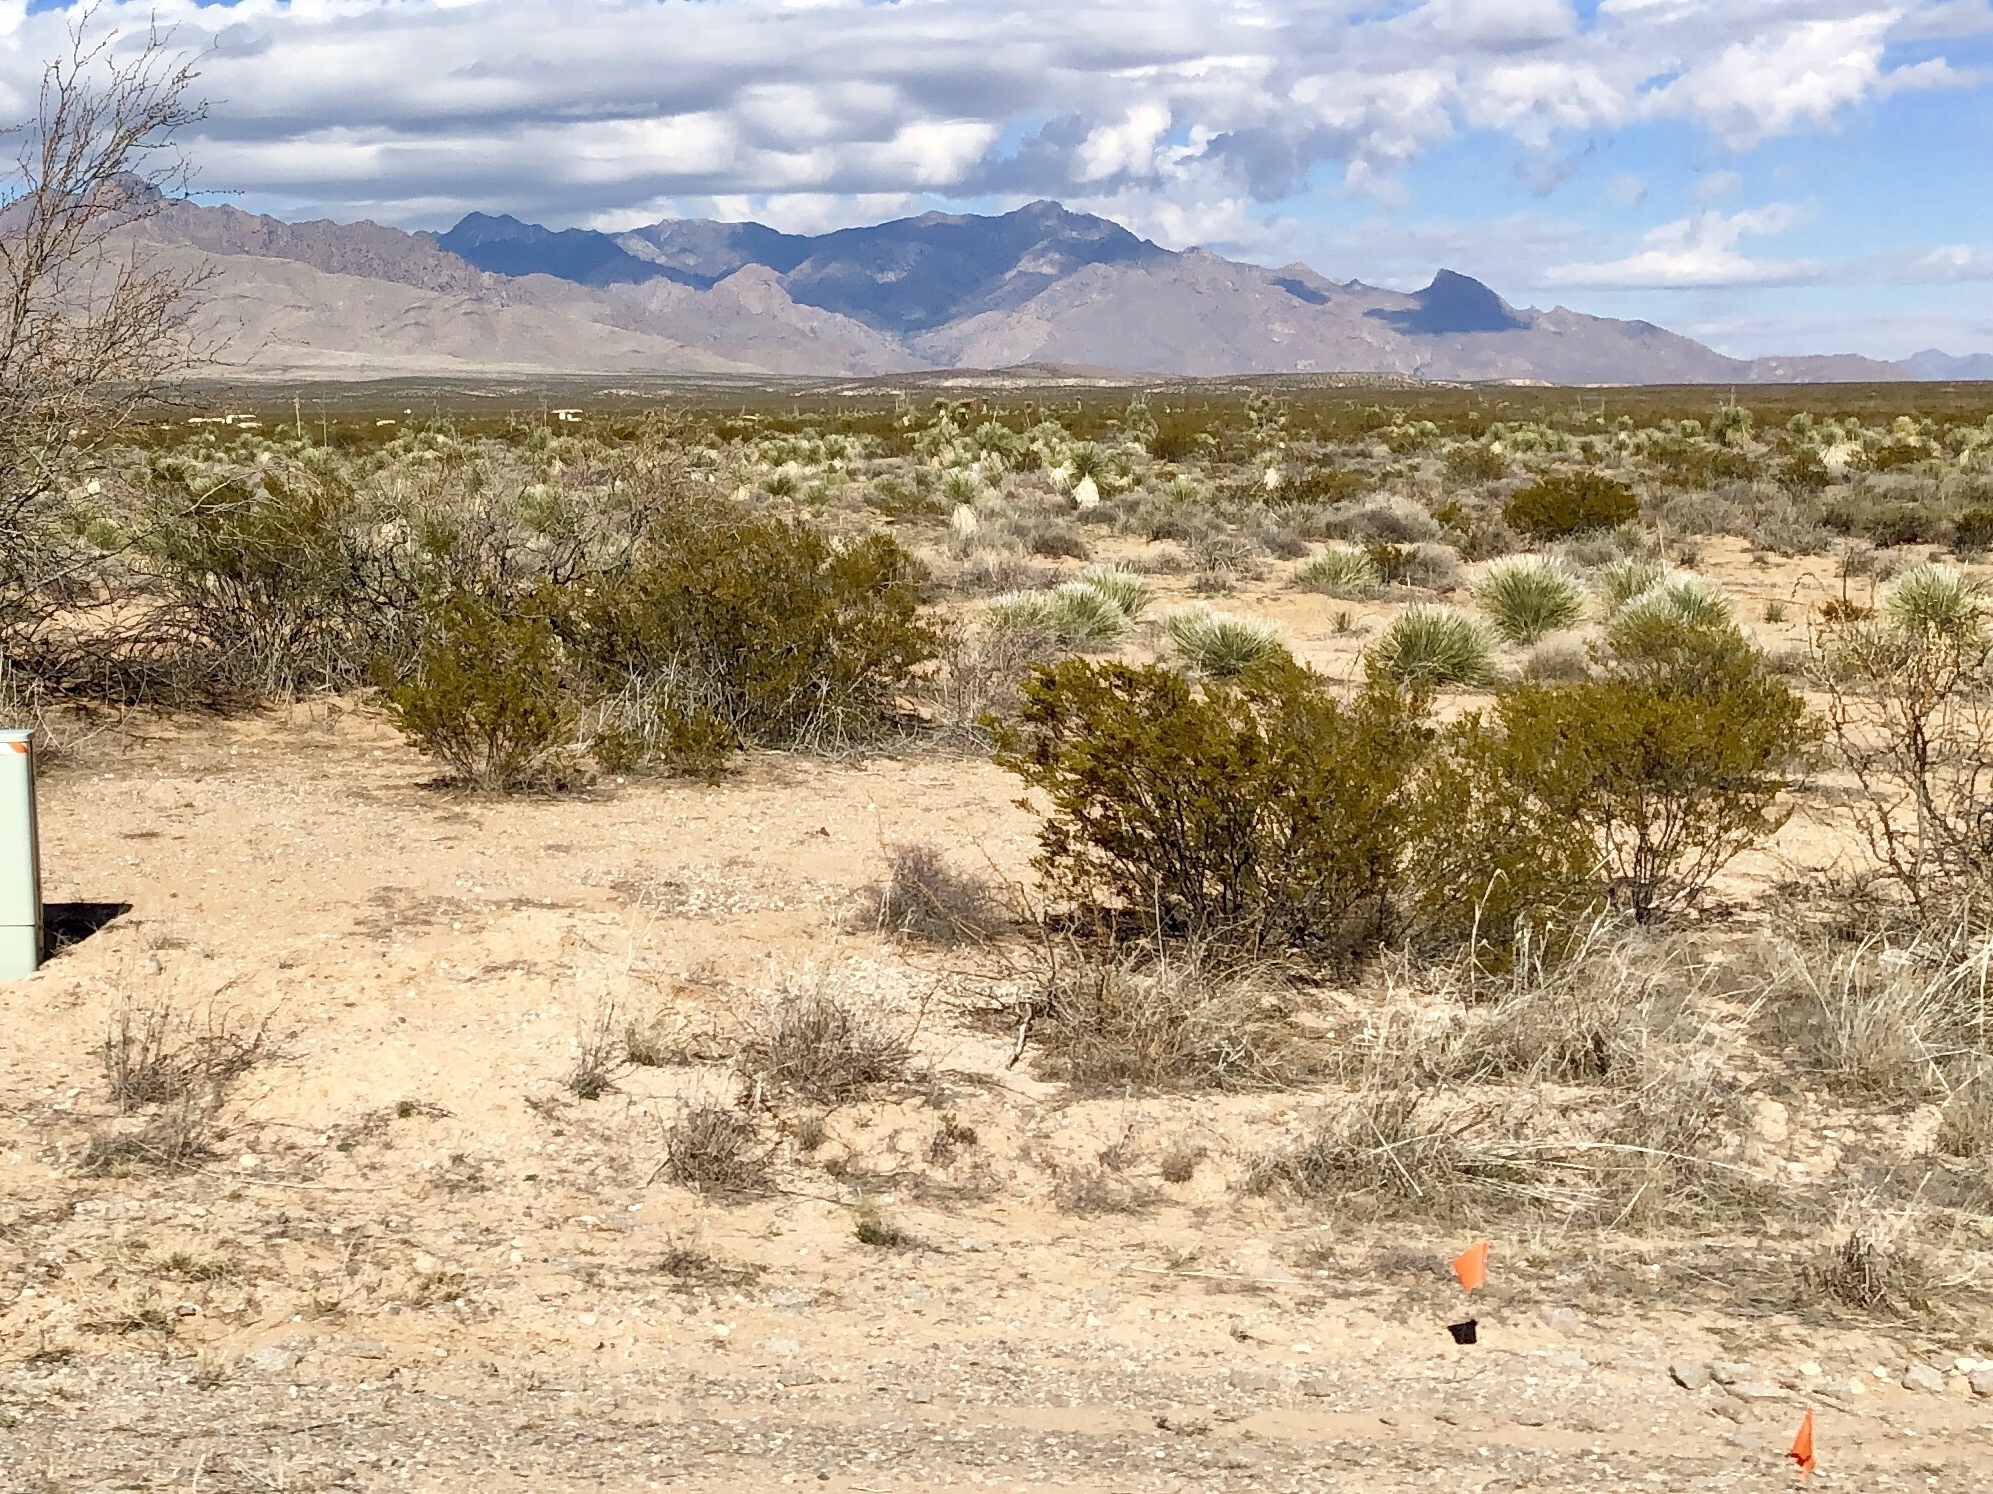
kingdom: Plantae
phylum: Tracheophyta
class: Magnoliopsida
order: Zygophyllales
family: Zygophyllaceae
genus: Larrea
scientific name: Larrea tridentata
